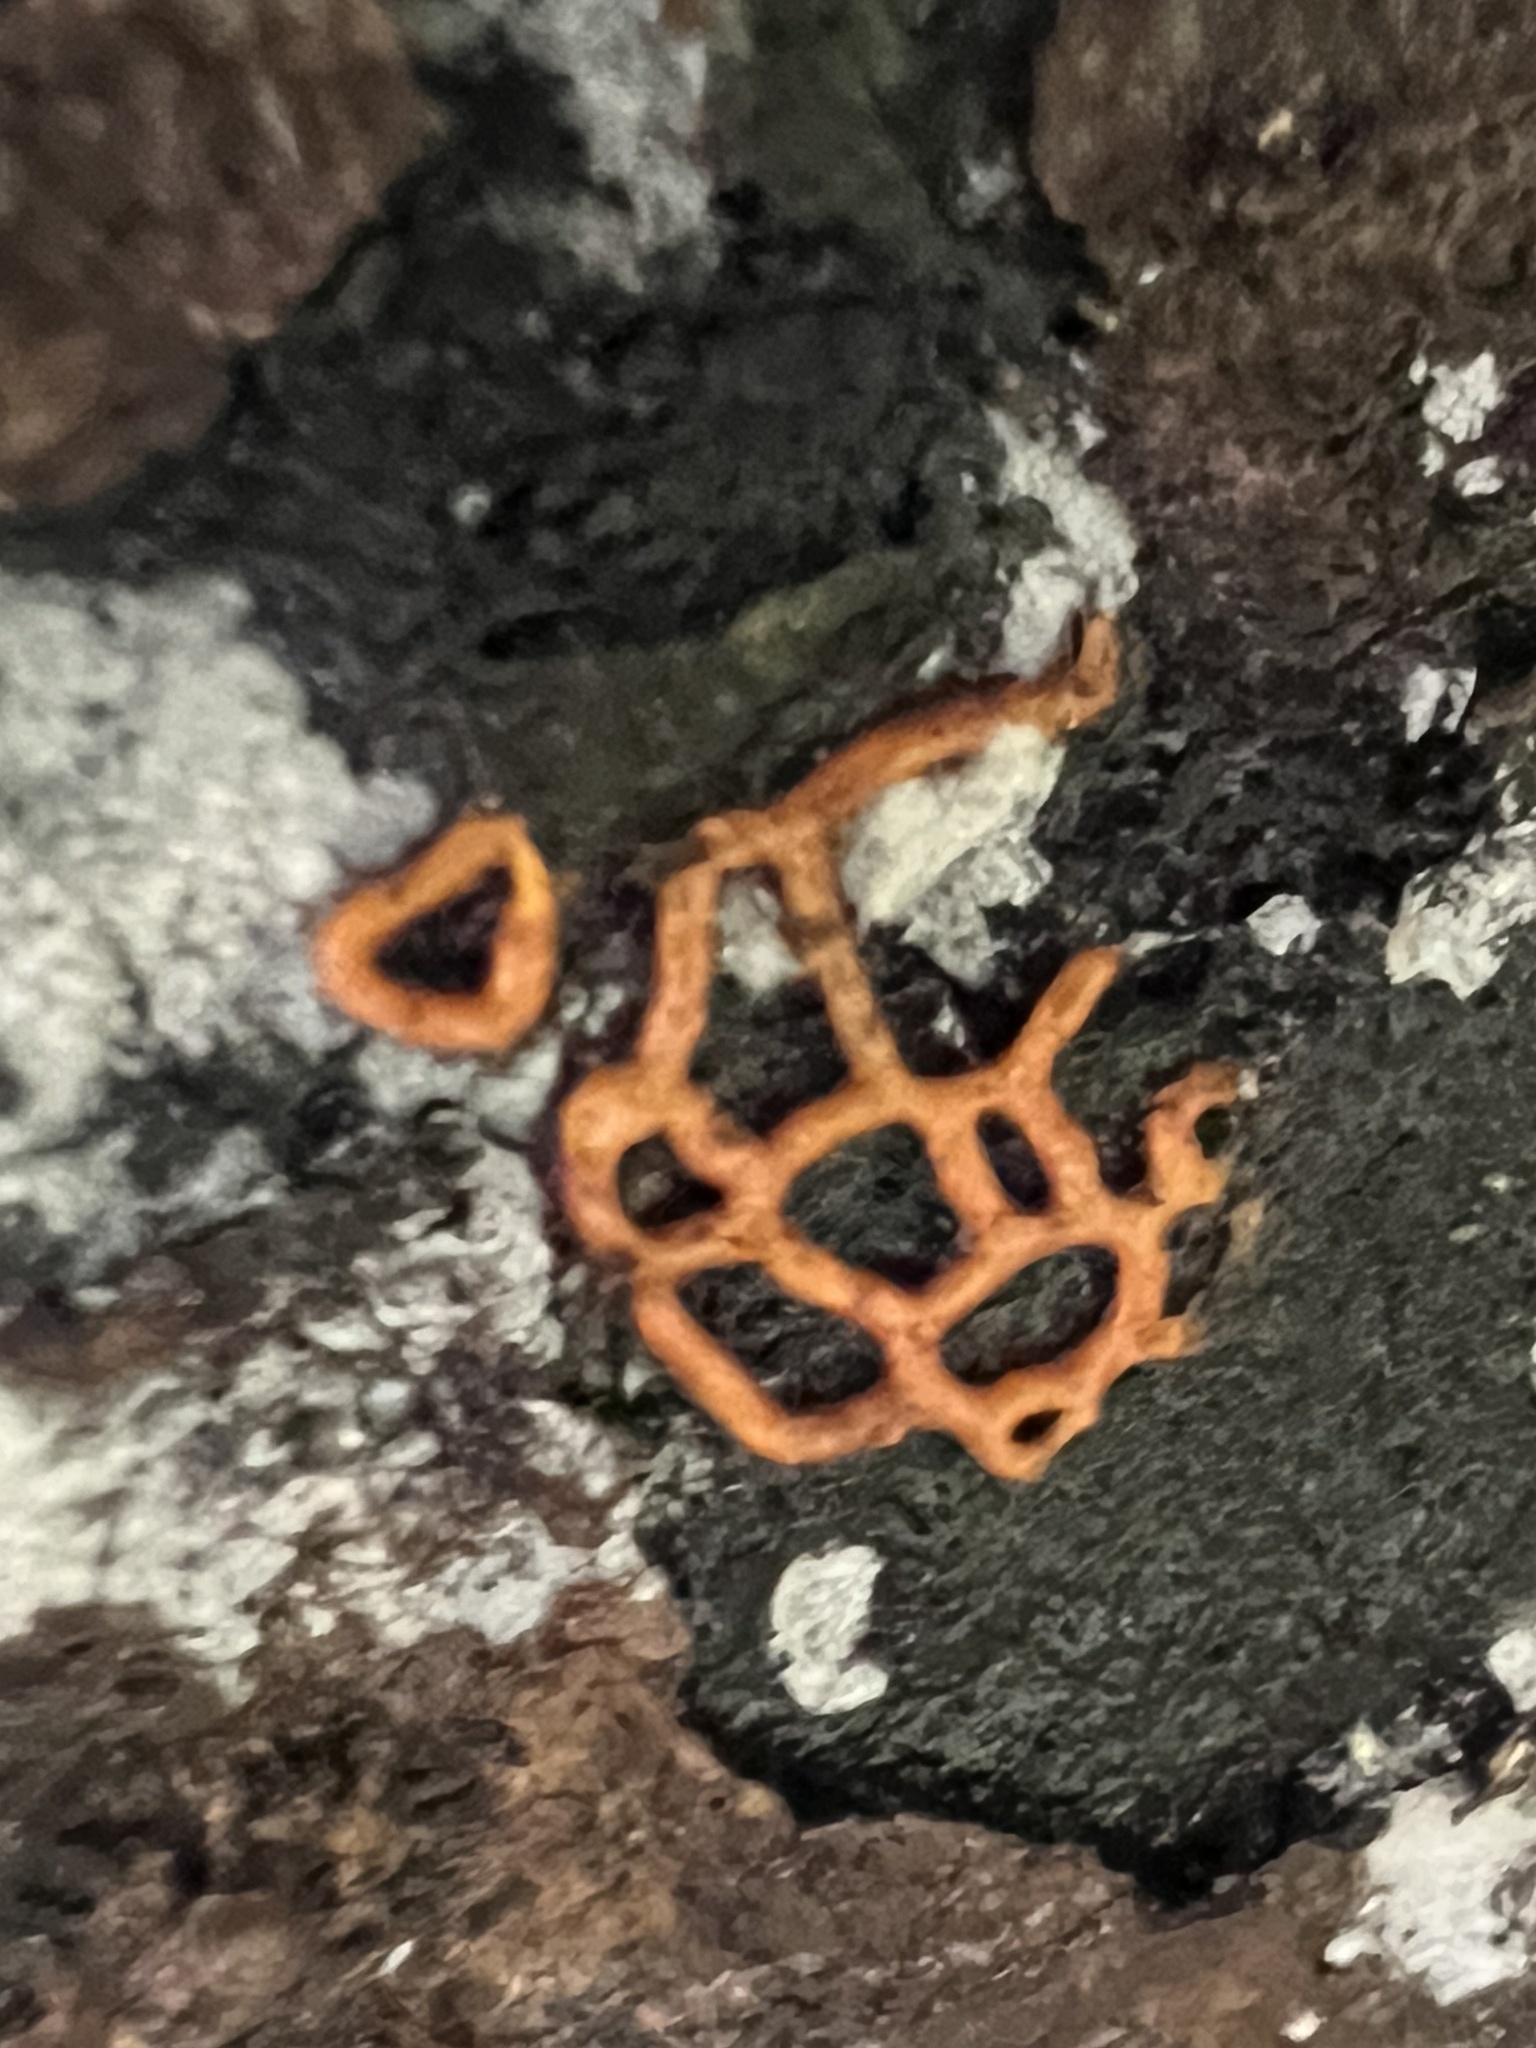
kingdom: Protozoa
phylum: Mycetozoa
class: Myxomycetes
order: Trichiales
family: Arcyriaceae
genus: Hemitrichia
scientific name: Hemitrichia serpula
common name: Pretzel slime mold
